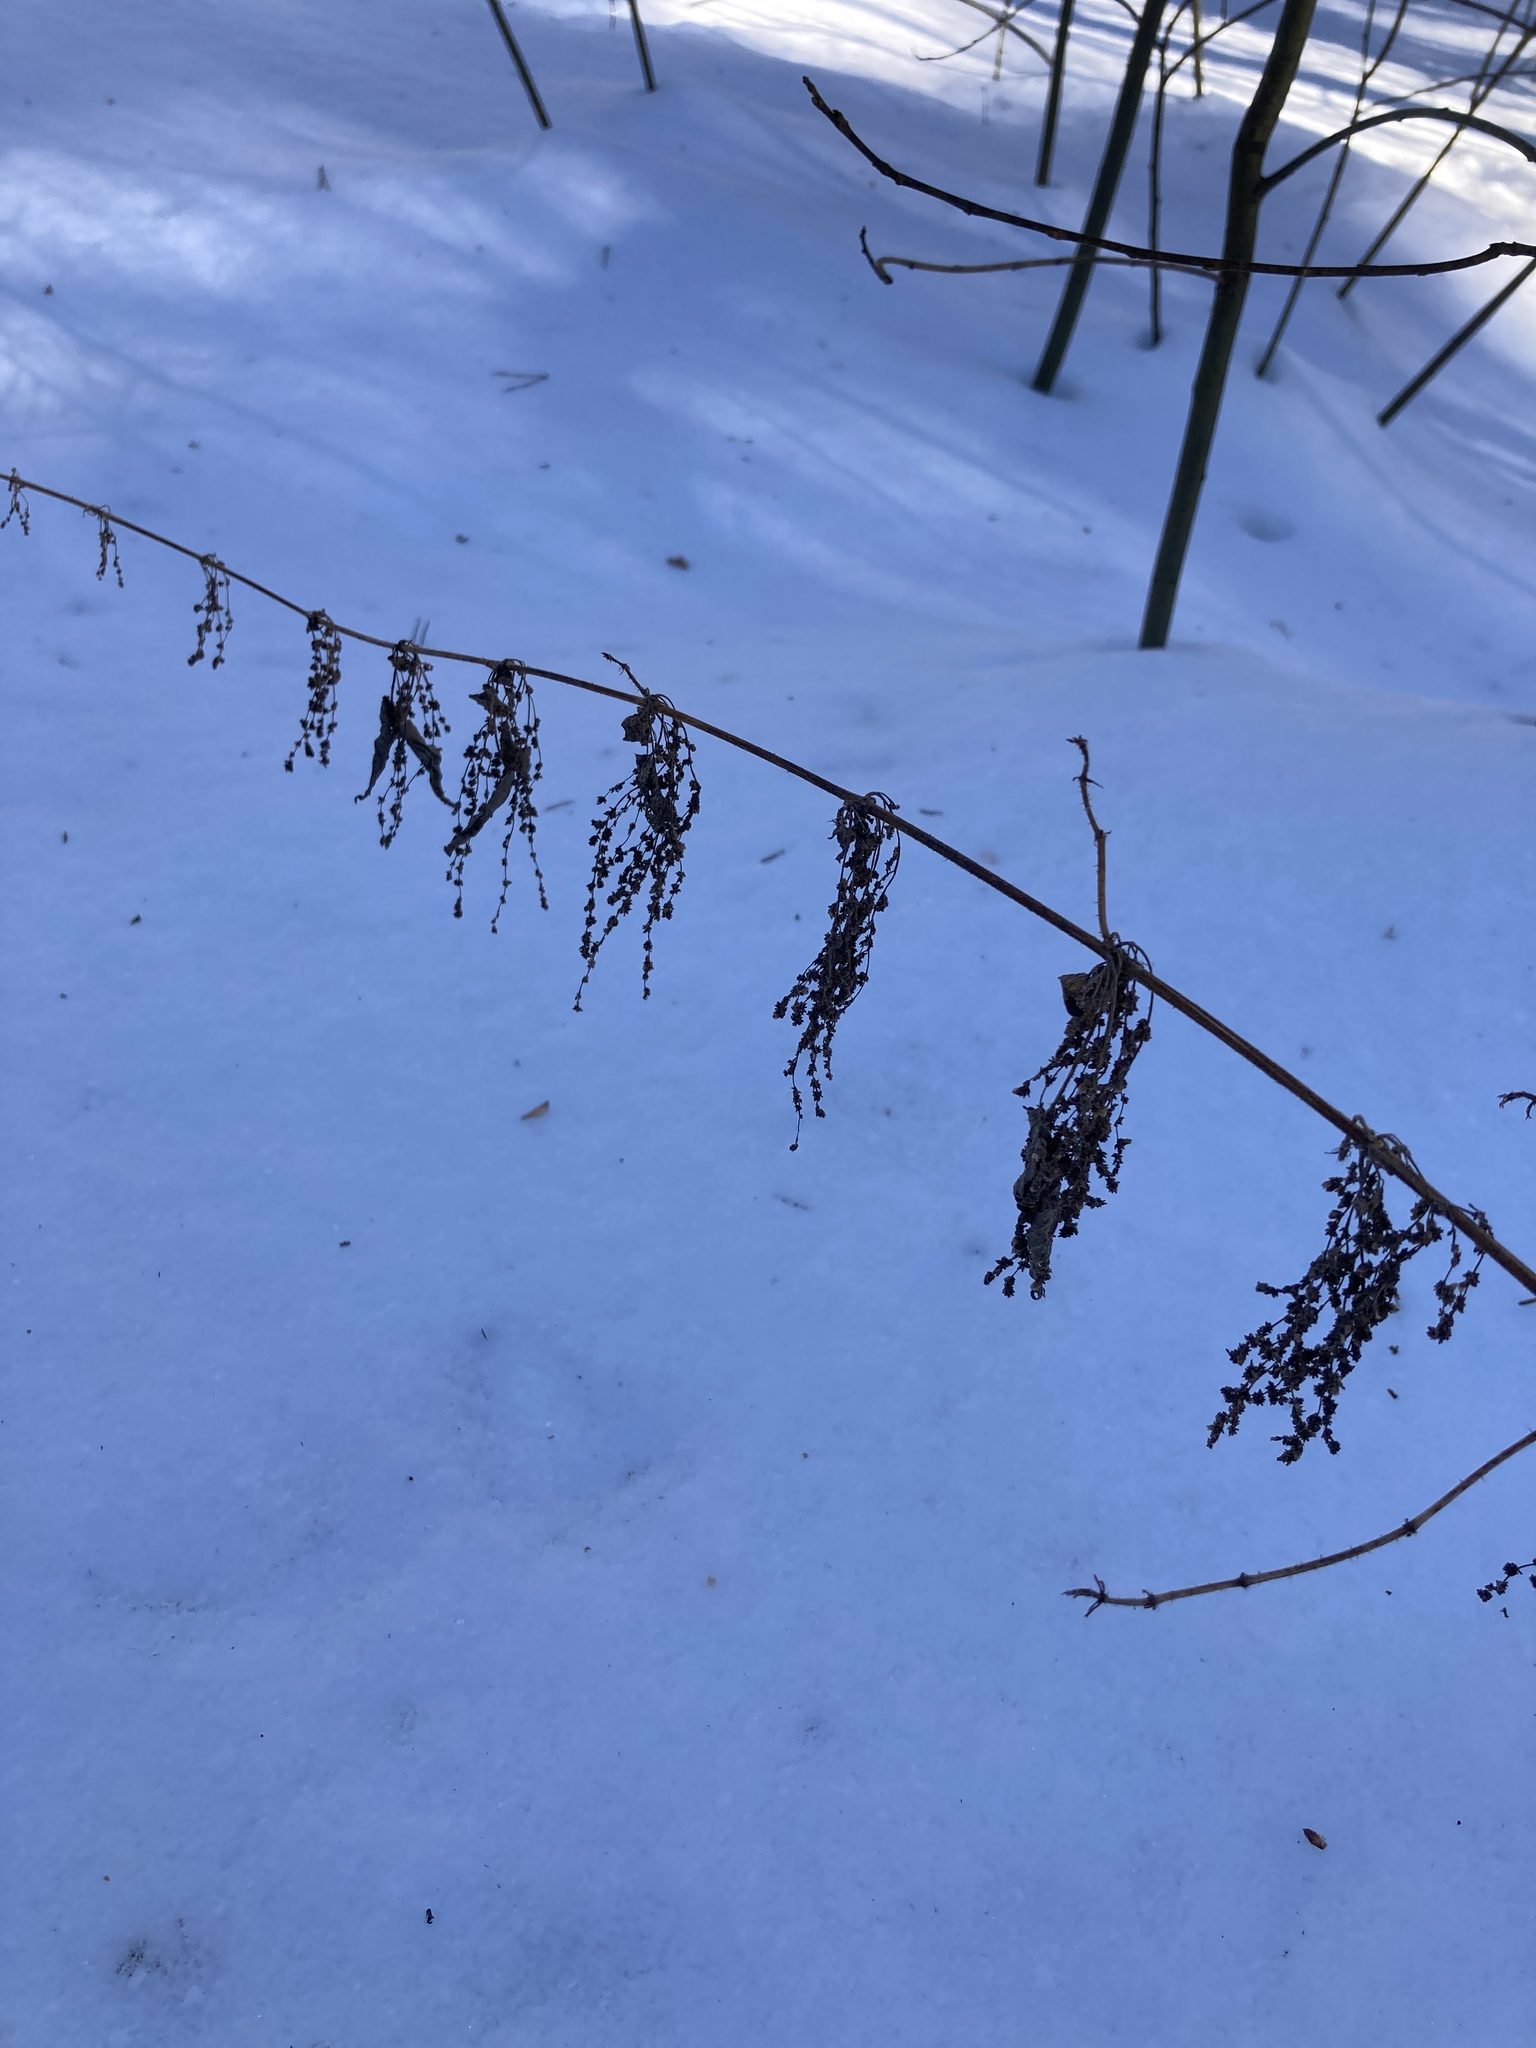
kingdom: Plantae
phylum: Tracheophyta
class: Magnoliopsida
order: Rosales
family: Urticaceae
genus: Urtica
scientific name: Urtica dioica
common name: Common nettle
